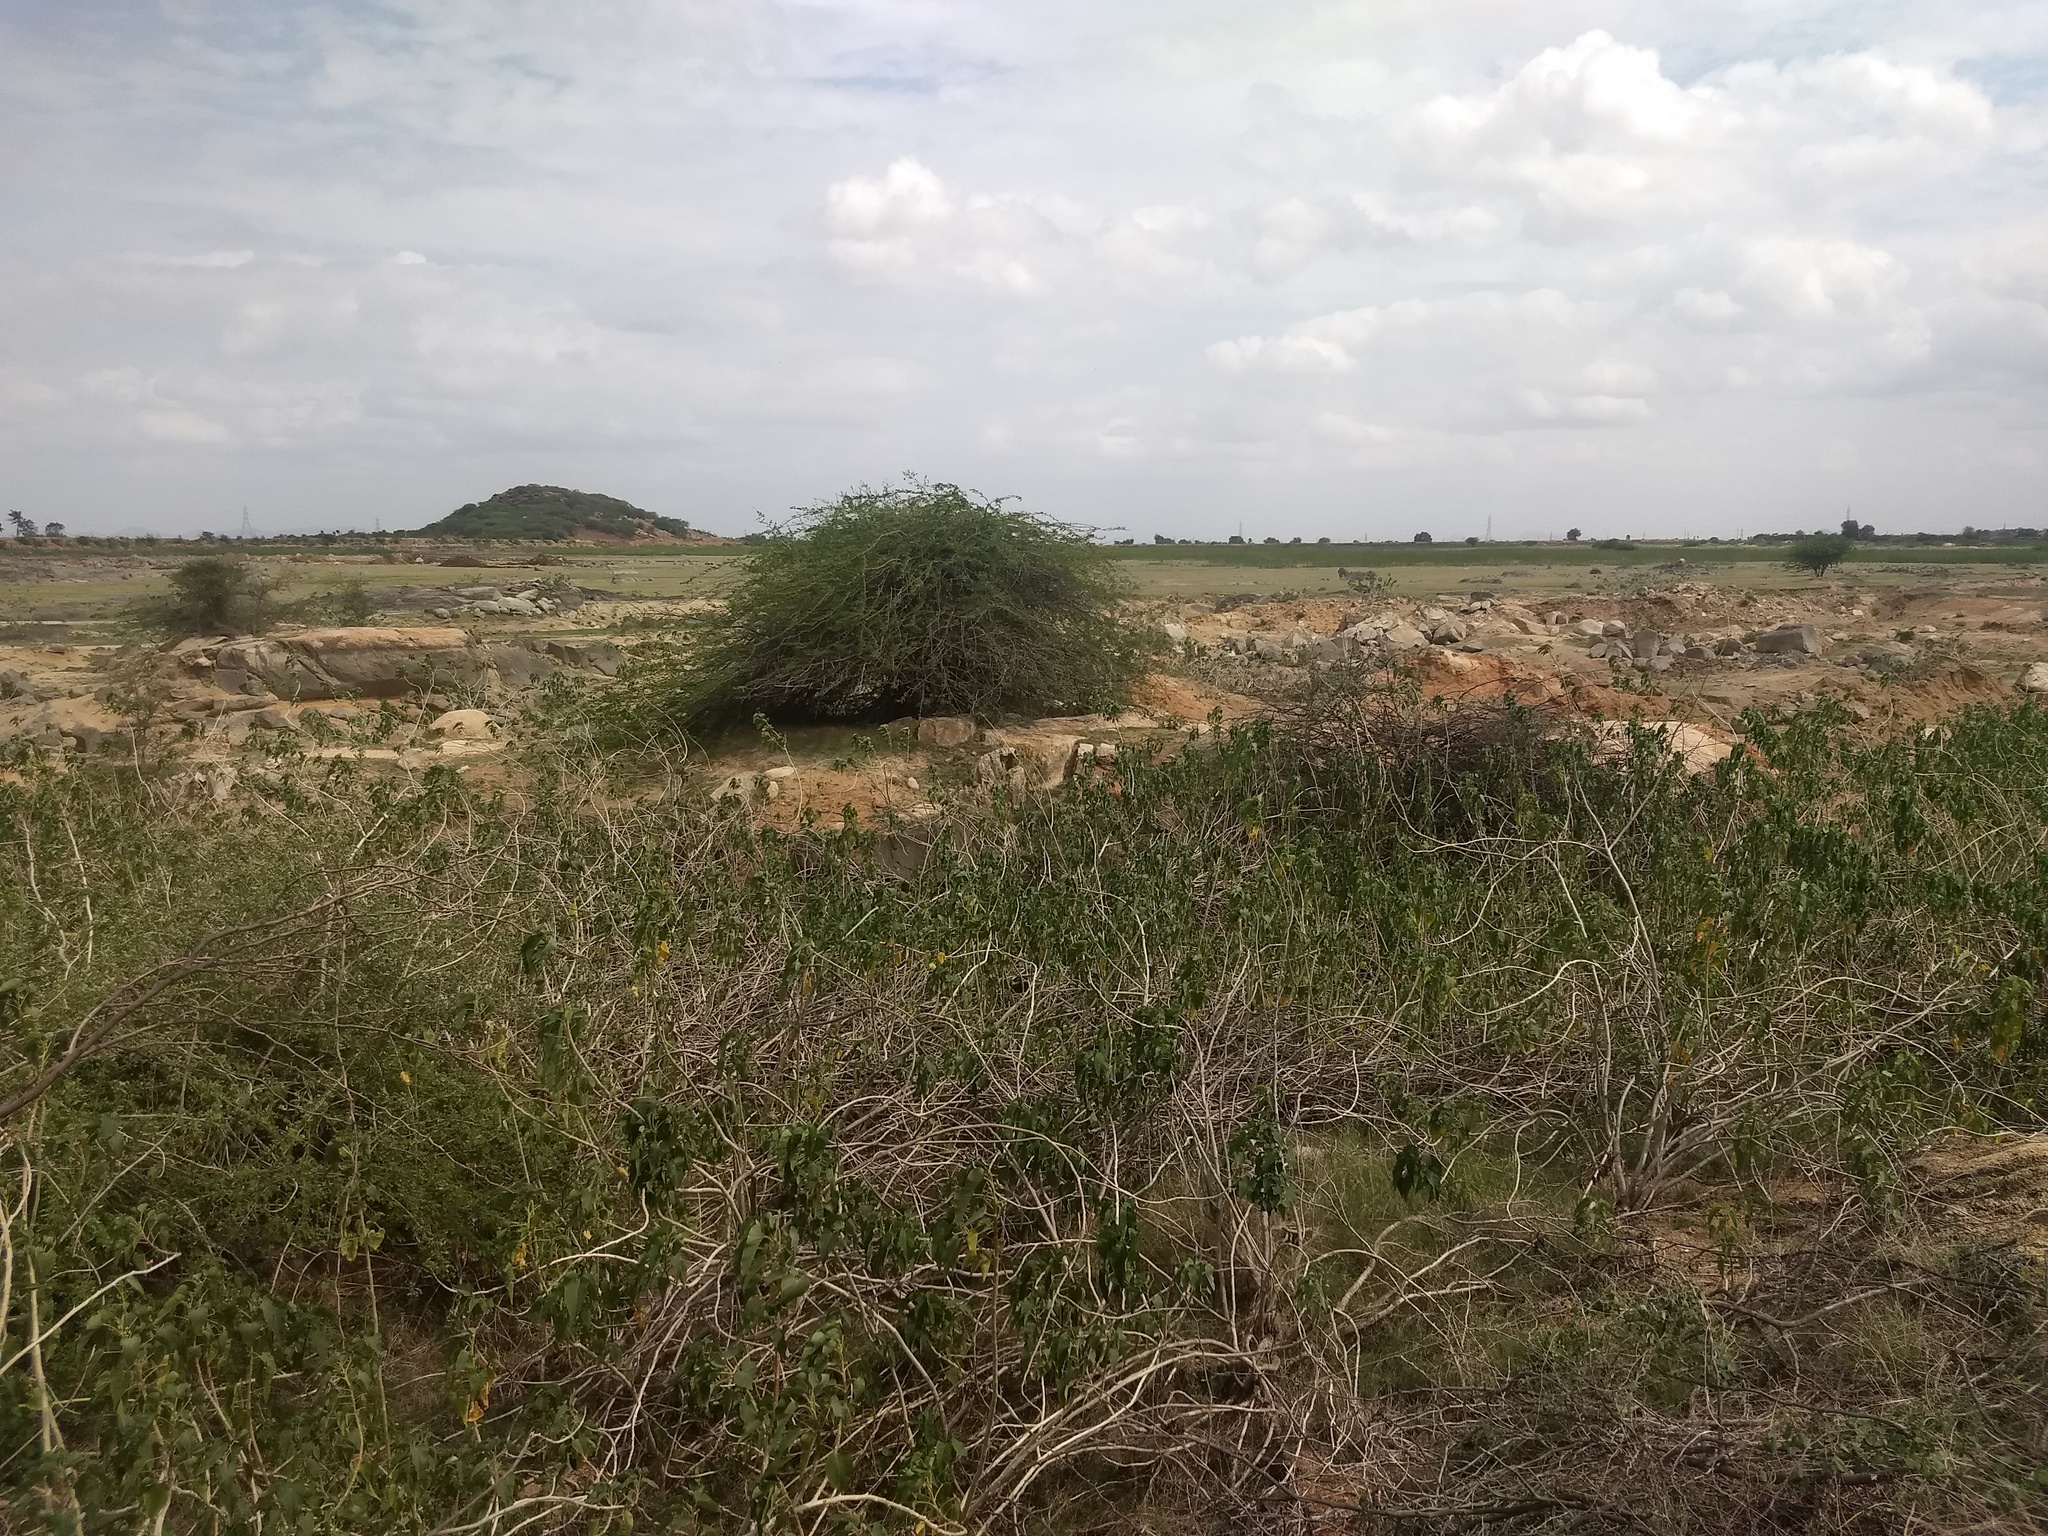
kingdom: Plantae
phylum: Tracheophyta
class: Magnoliopsida
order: Solanales
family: Convolvulaceae
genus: Ipomoea
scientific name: Ipomoea carnea
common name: Morning-glory
